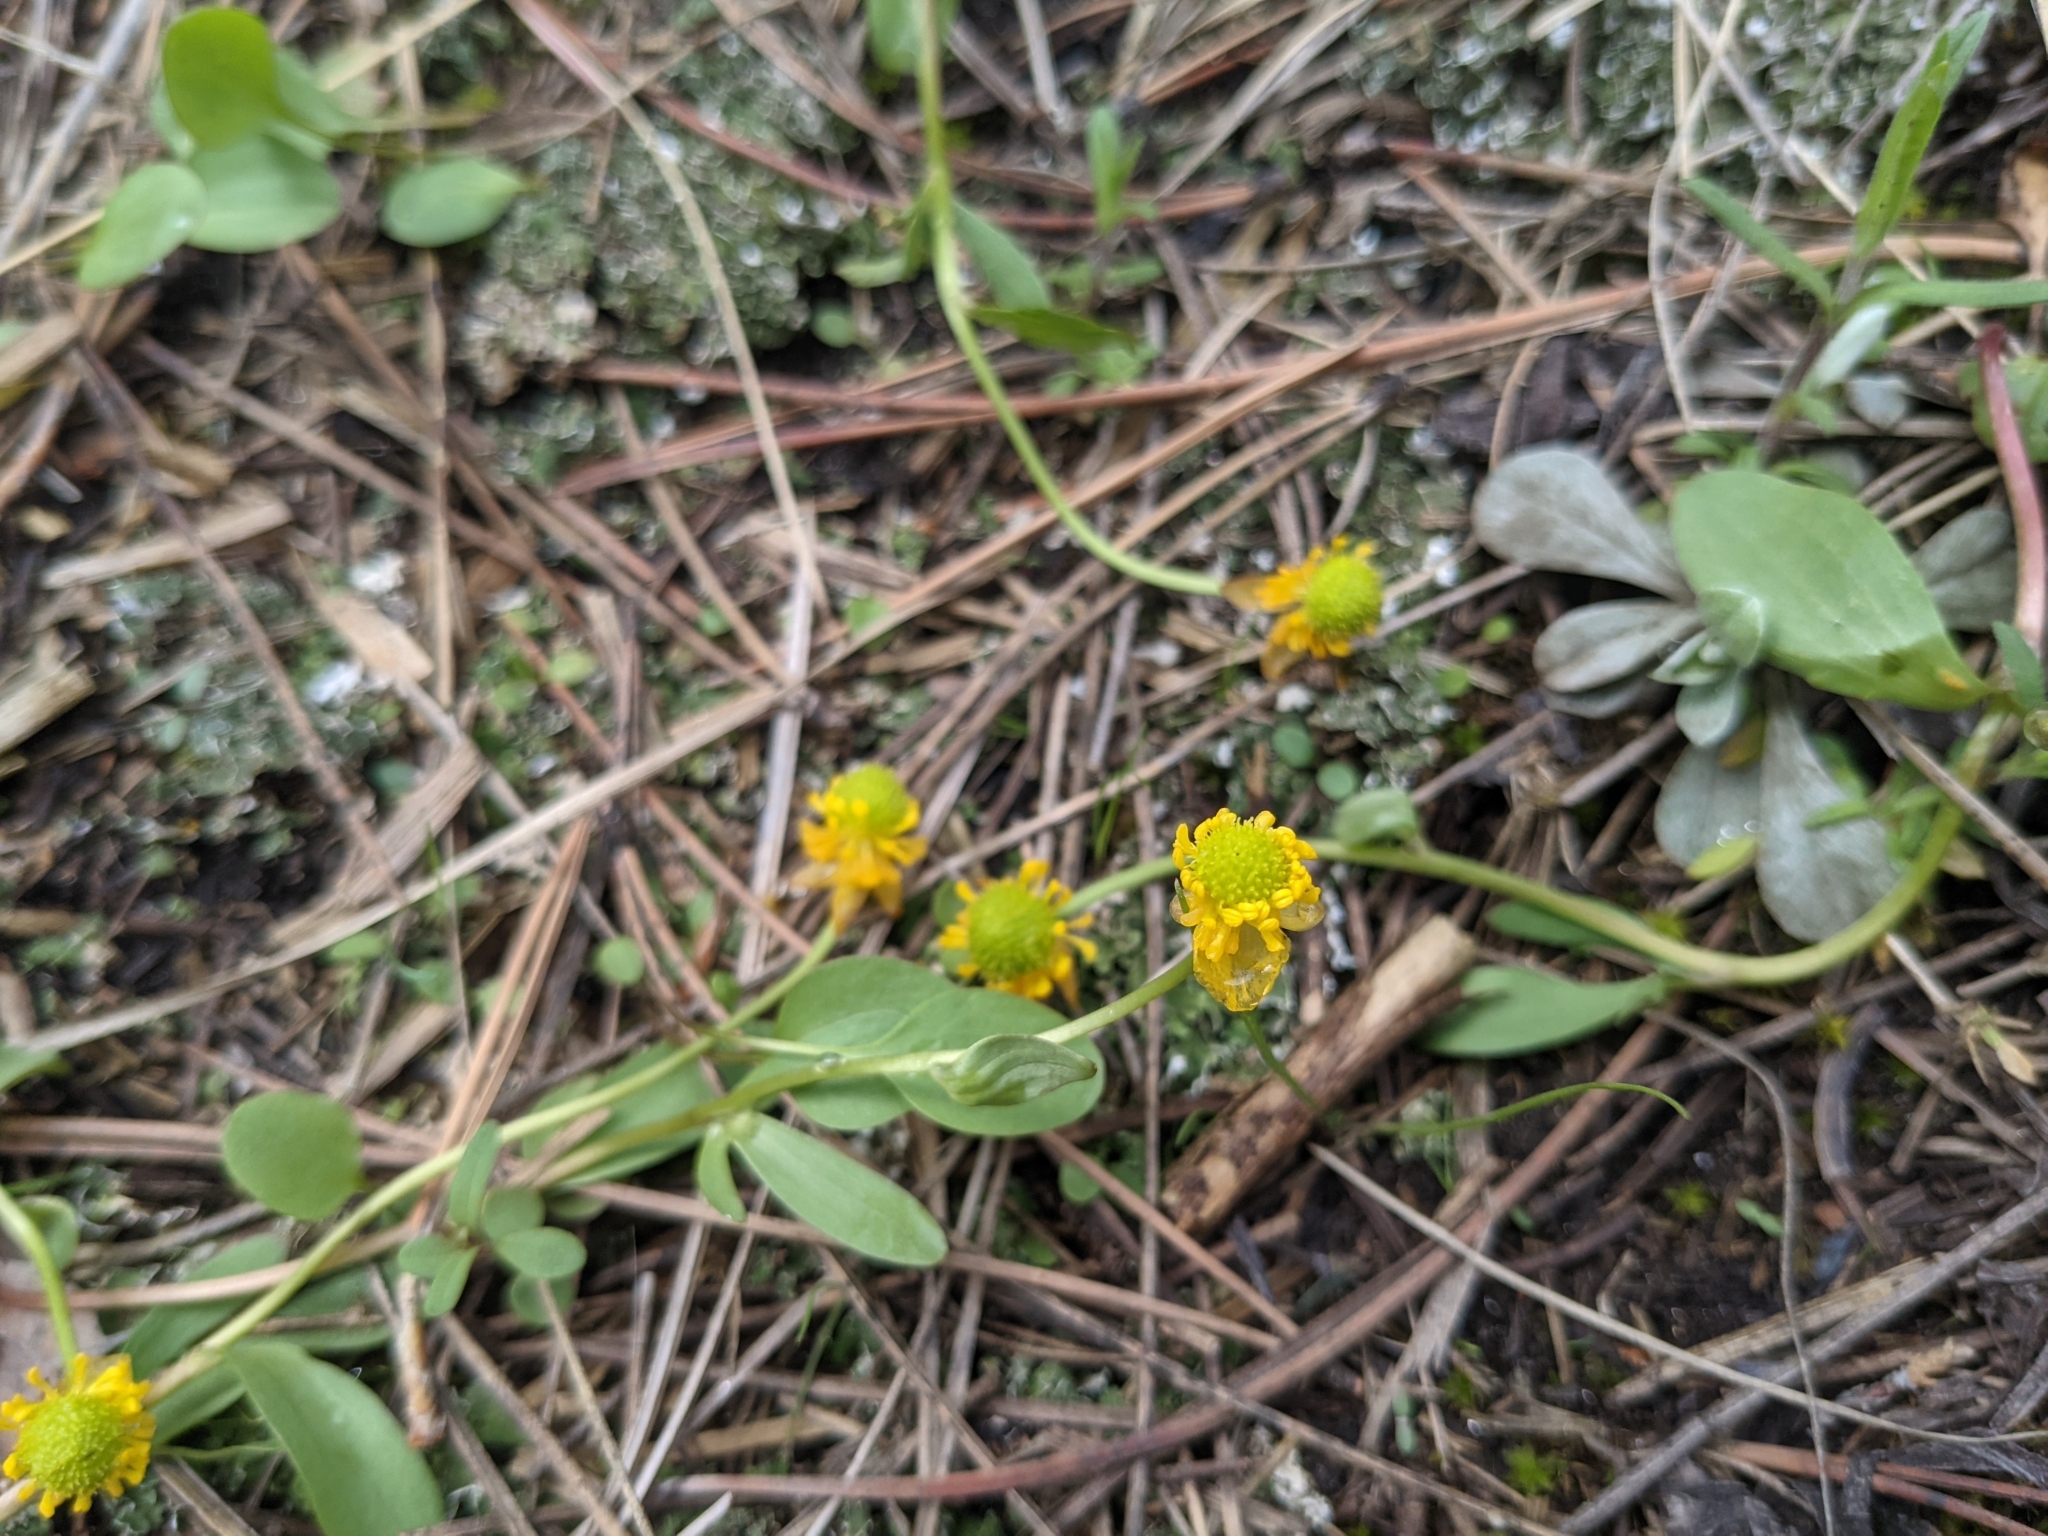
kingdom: Plantae
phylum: Tracheophyta
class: Magnoliopsida
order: Ranunculales
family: Ranunculaceae
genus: Ranunculus
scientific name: Ranunculus glaberrimus
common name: Sagebrush buttercup
